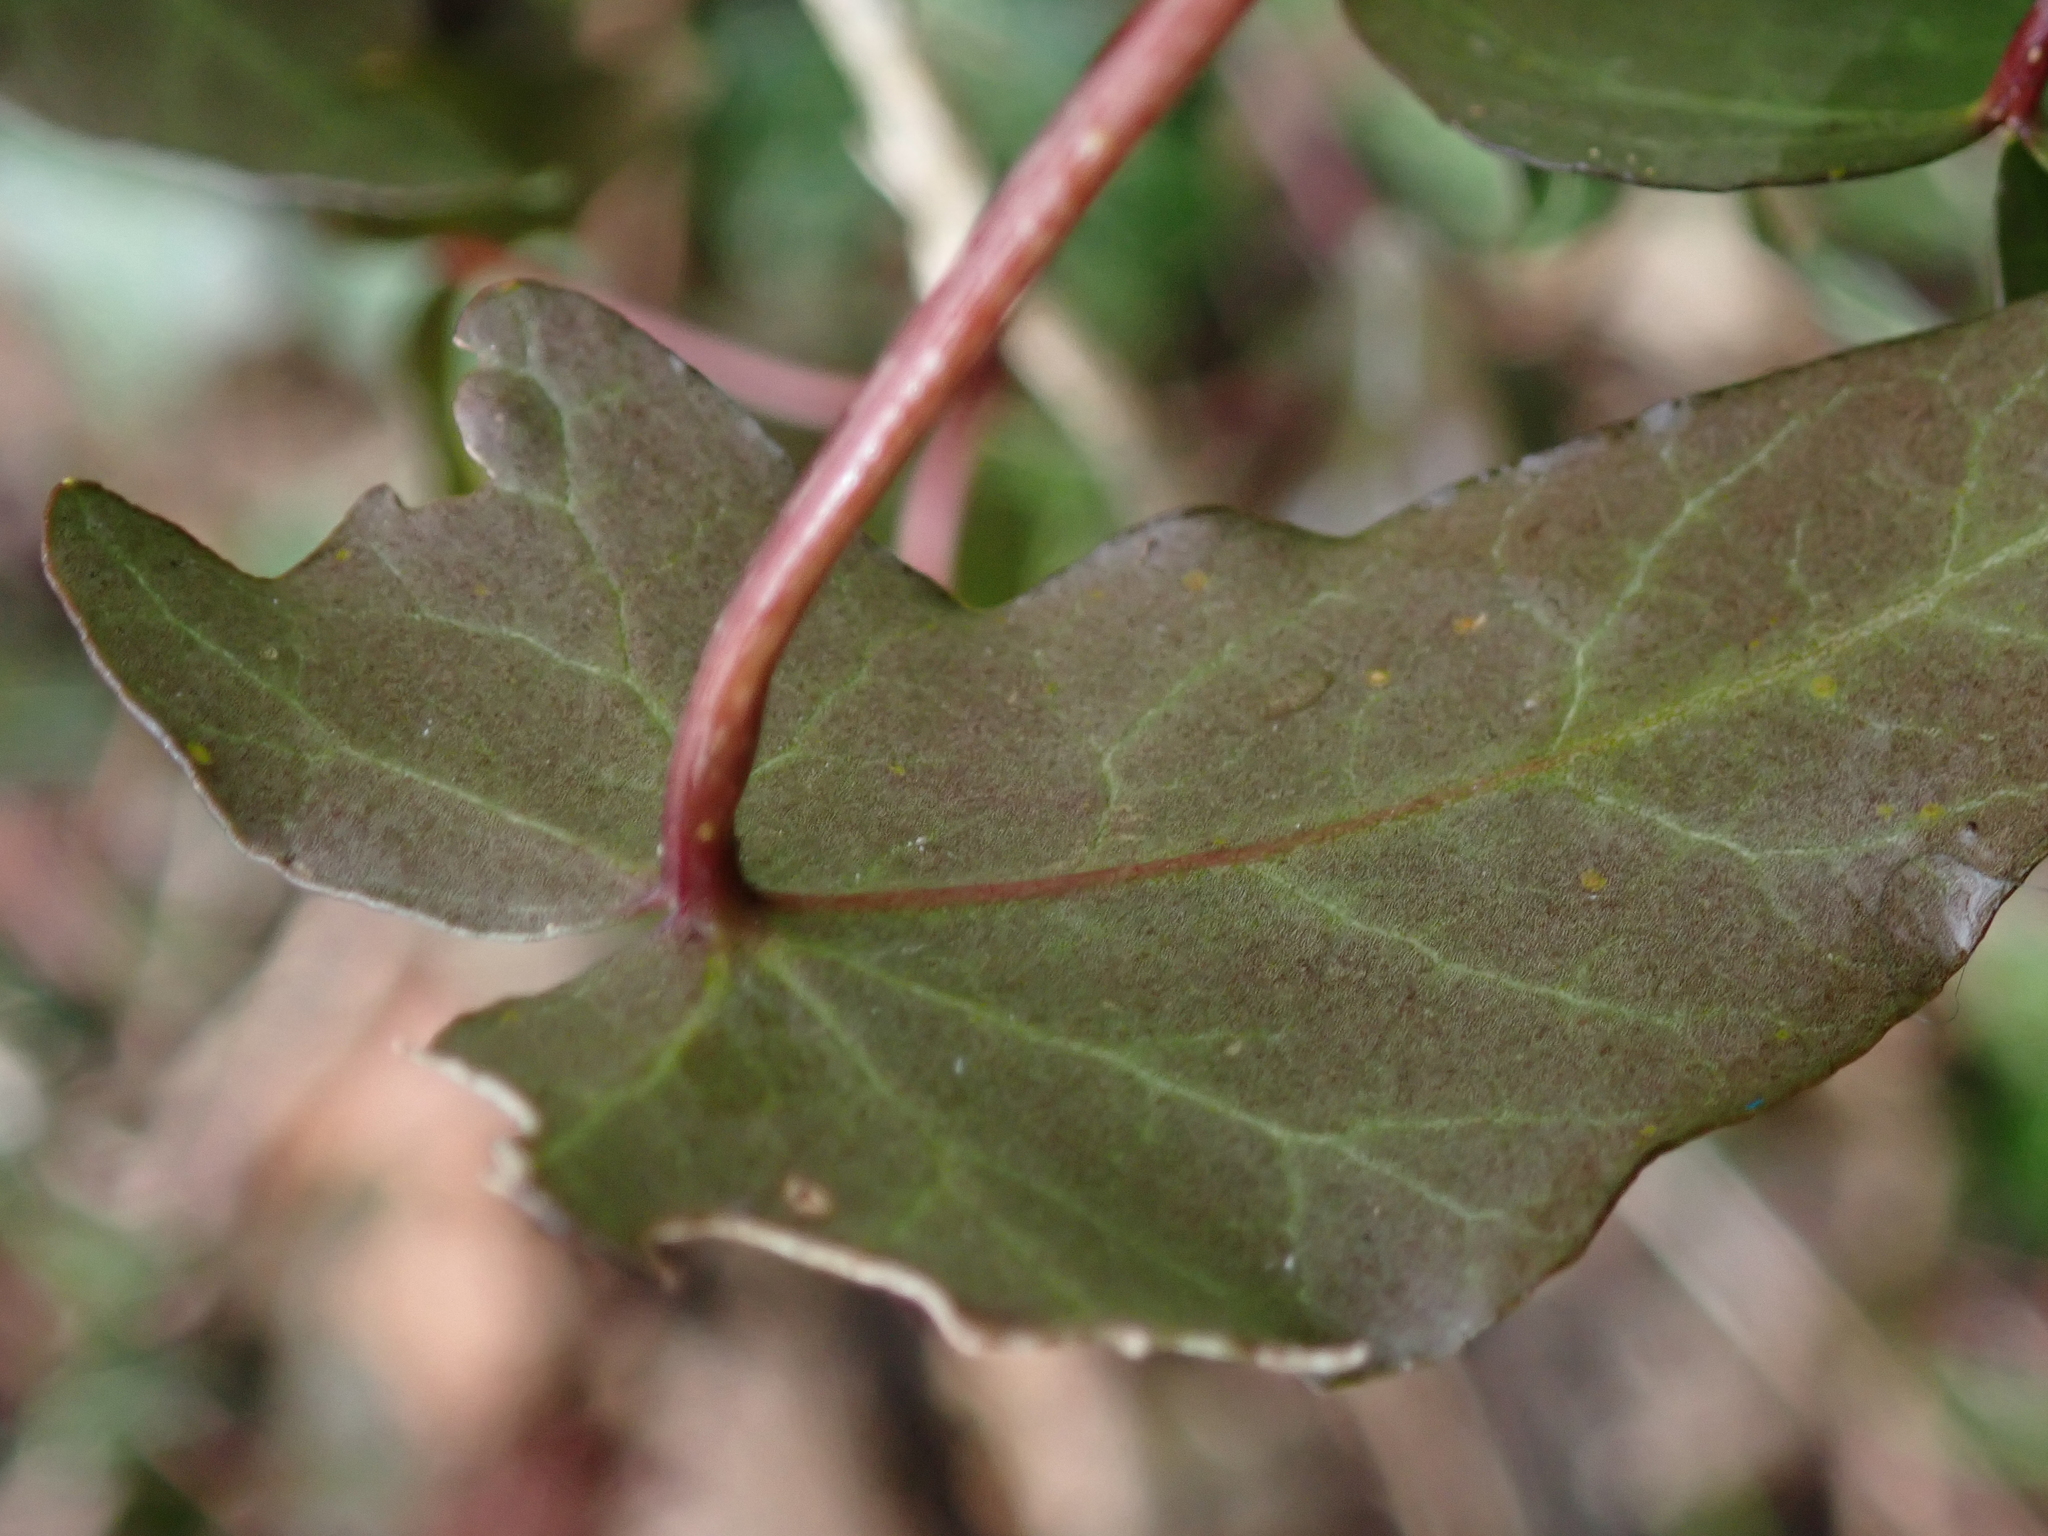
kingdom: Plantae
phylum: Tracheophyta
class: Magnoliopsida
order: Apiales
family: Araliaceae
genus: Hedera
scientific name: Hedera helix
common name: Ivy
